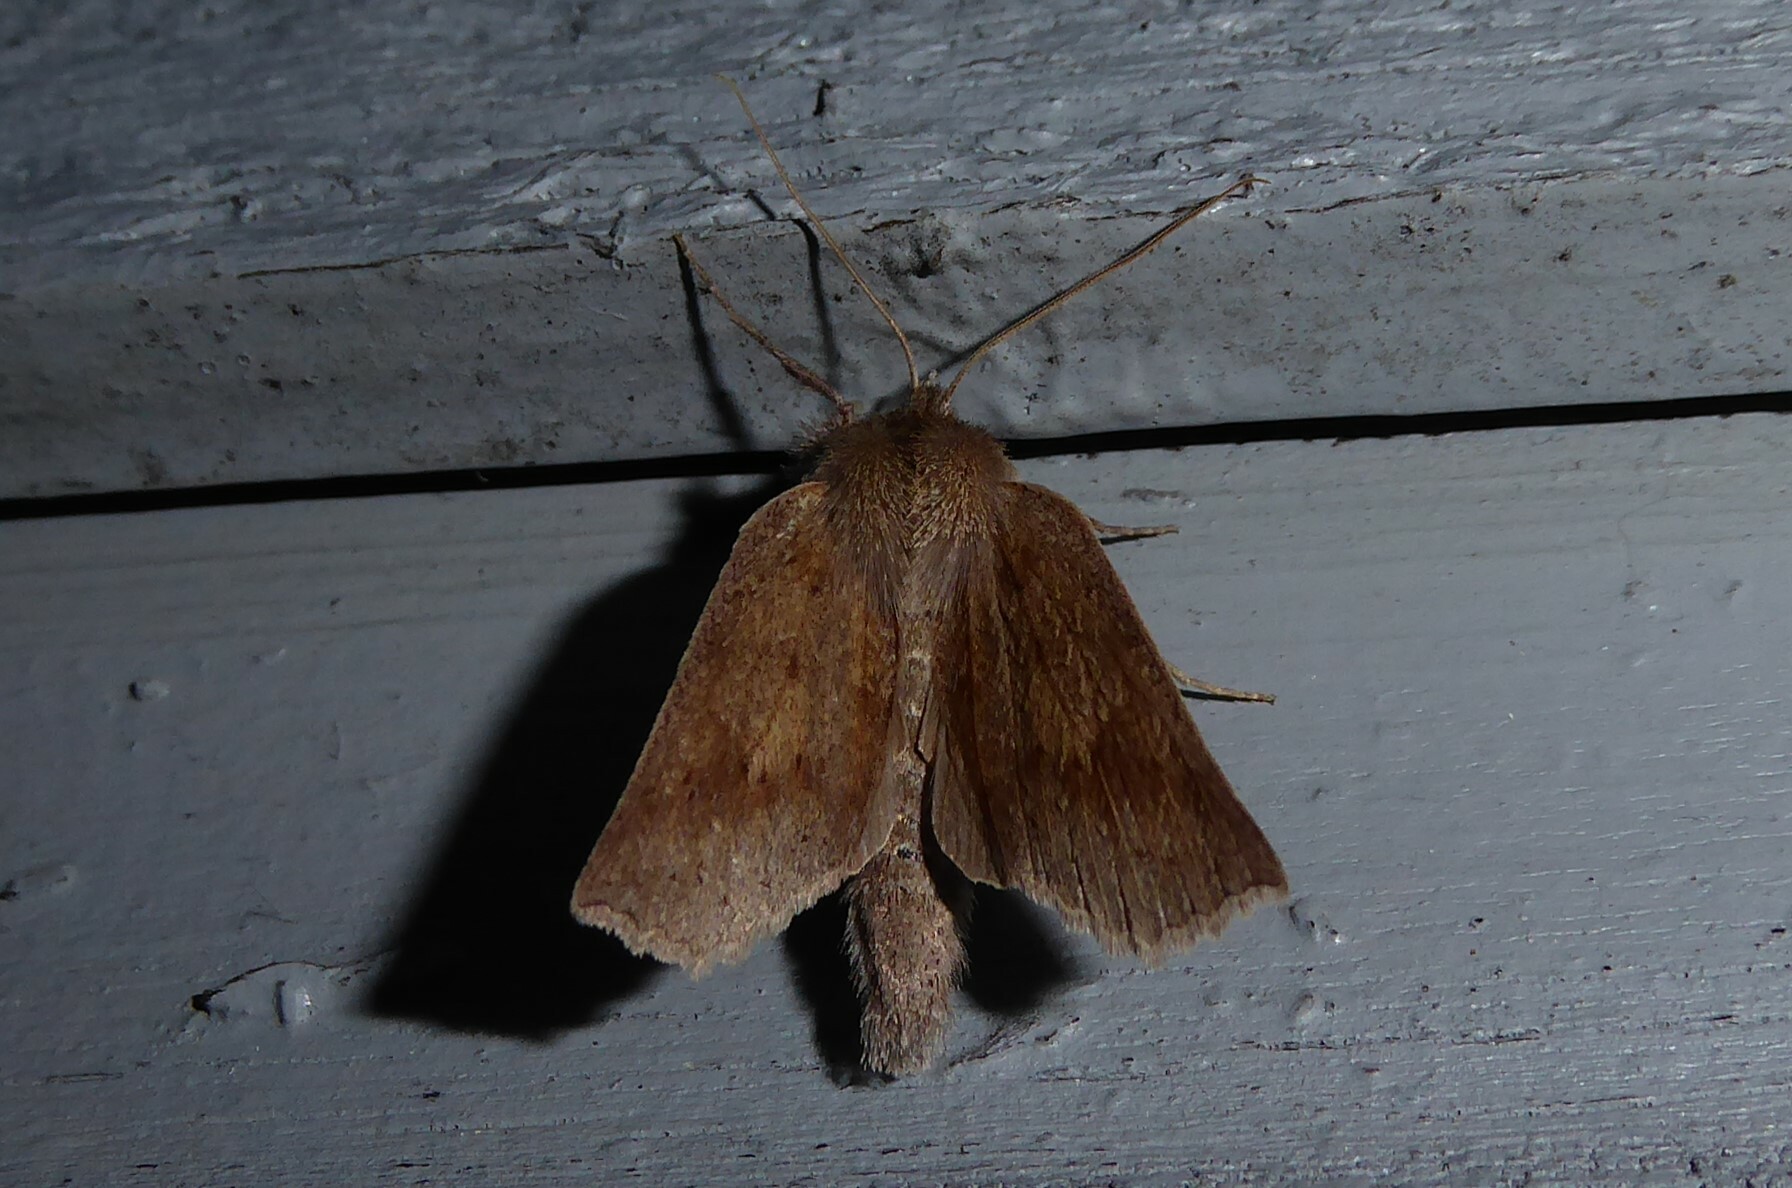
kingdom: Animalia
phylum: Arthropoda
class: Insecta
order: Lepidoptera
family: Geometridae
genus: Declana
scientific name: Declana leptomera
